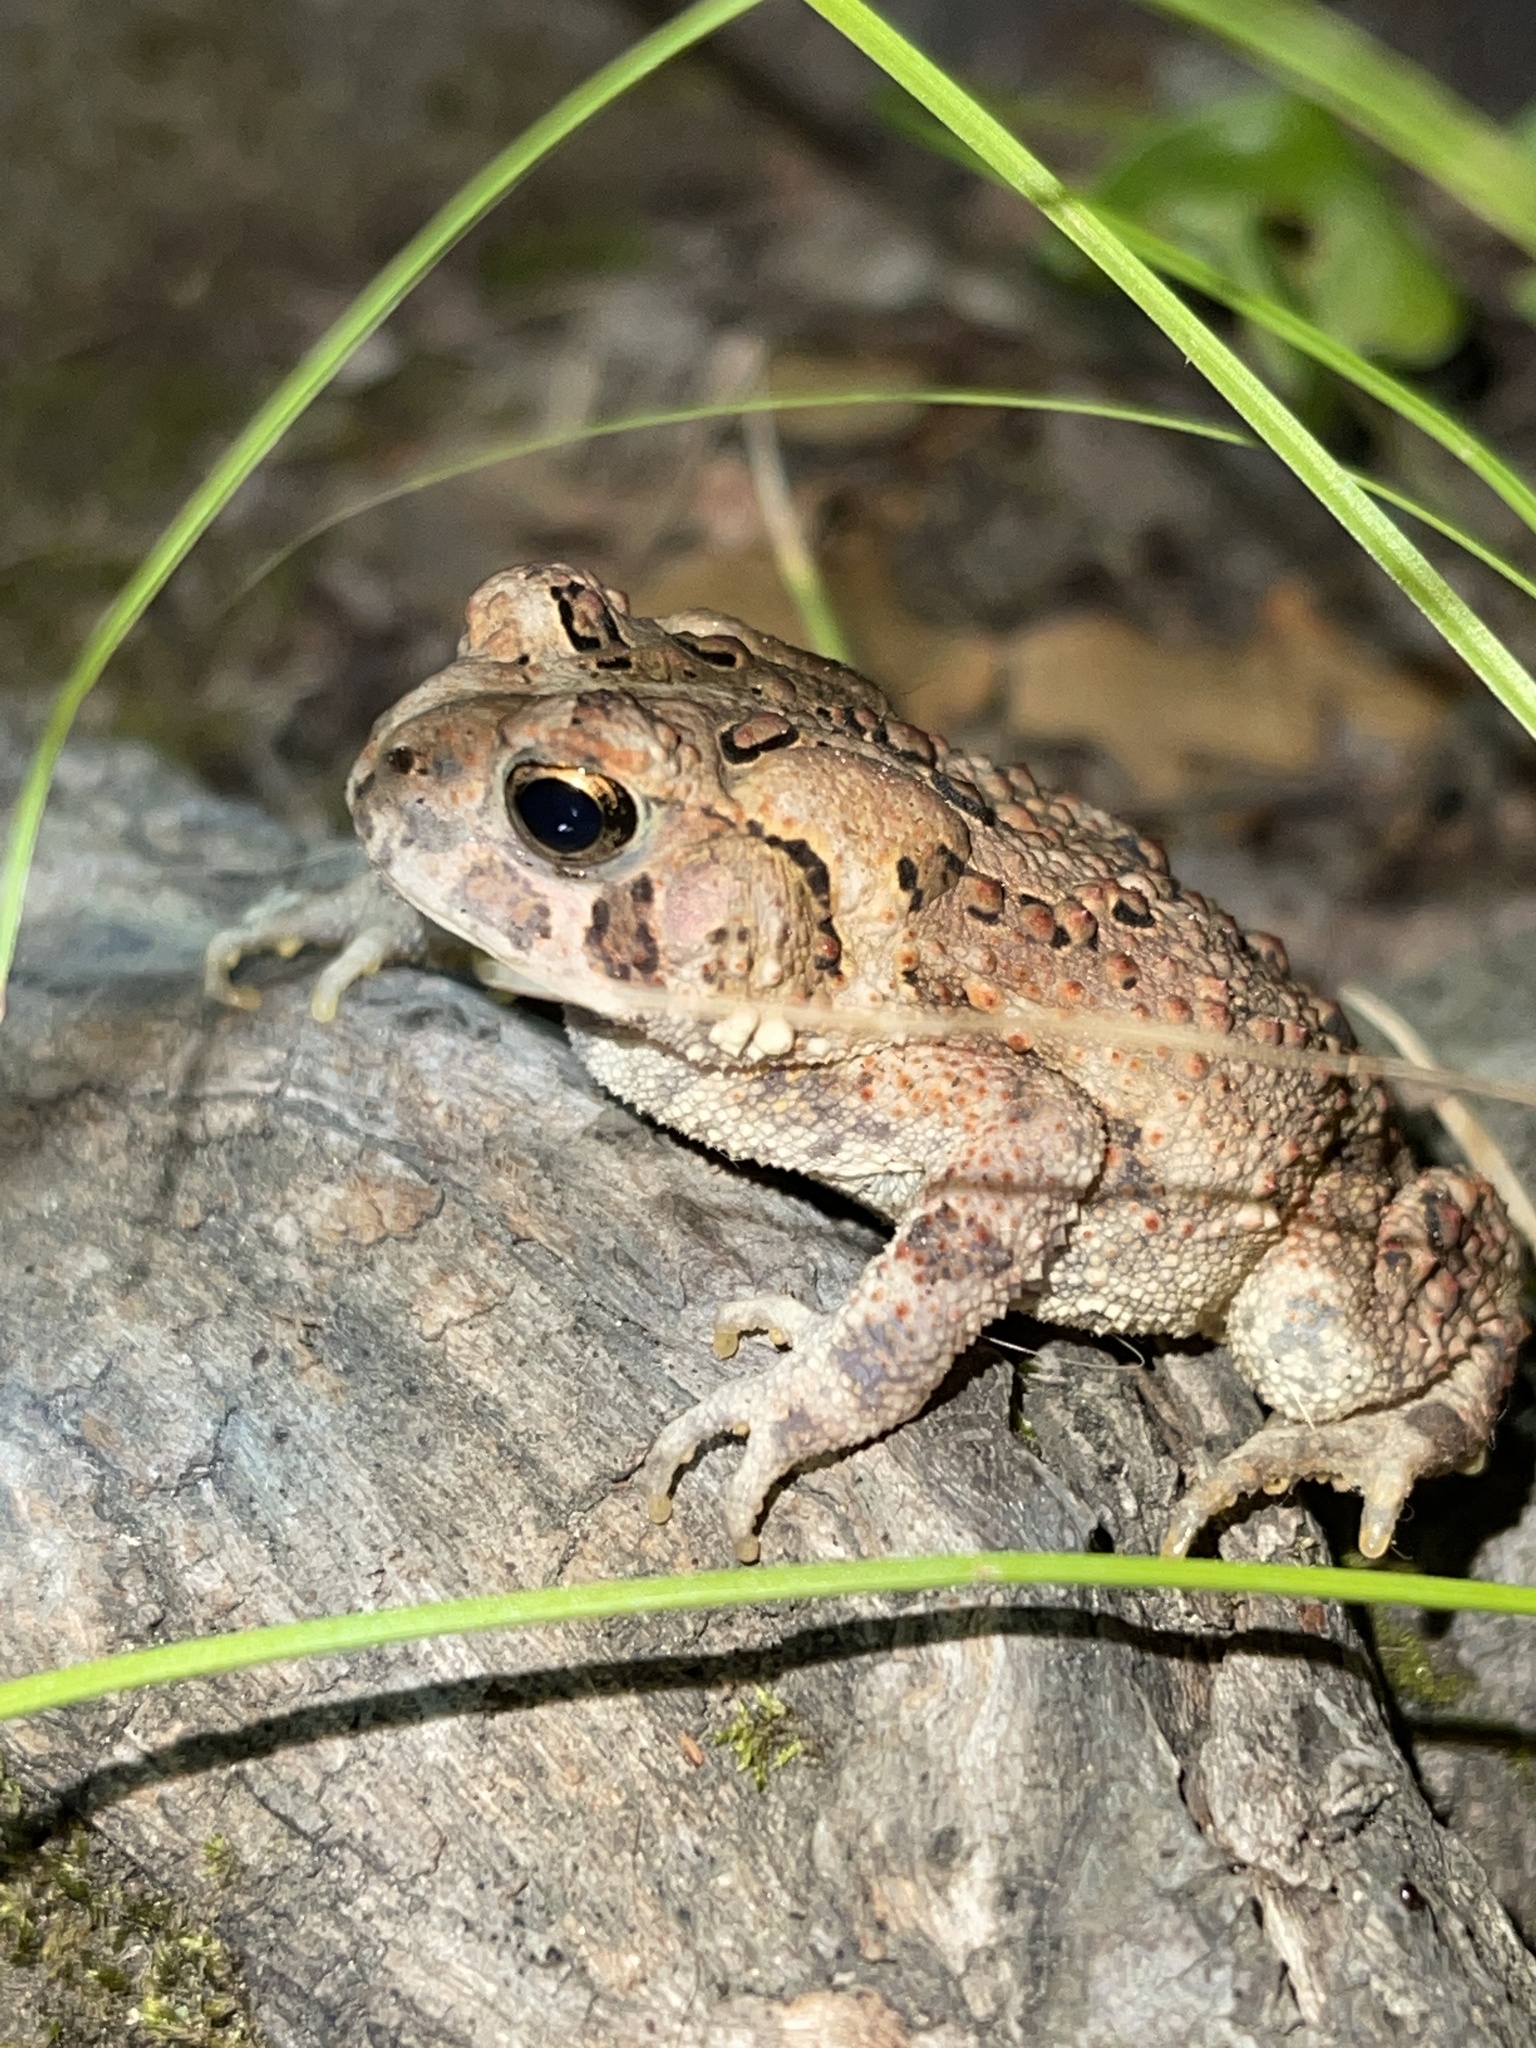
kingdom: Animalia
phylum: Chordata
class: Amphibia
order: Anura
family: Bufonidae
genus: Anaxyrus
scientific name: Anaxyrus americanus
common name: American toad
